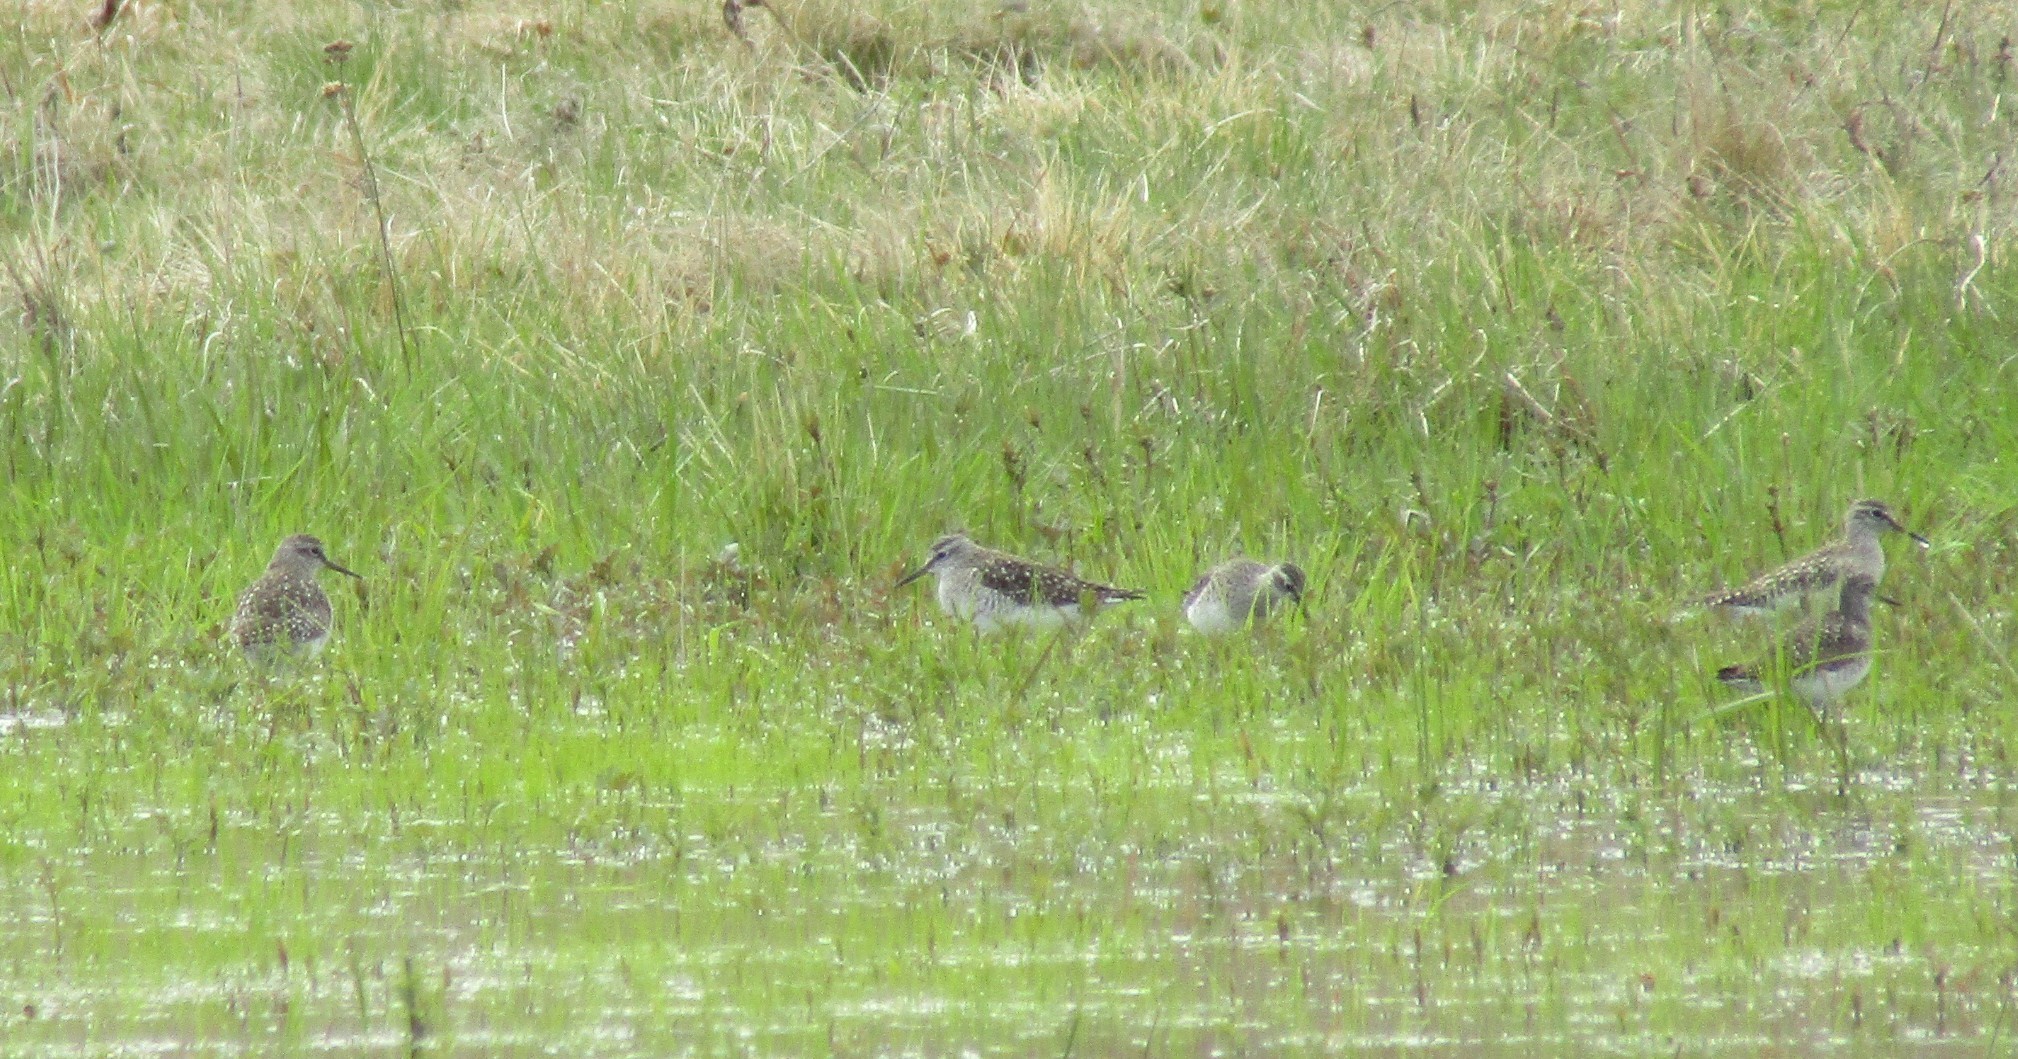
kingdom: Animalia
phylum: Chordata
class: Aves
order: Charadriiformes
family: Scolopacidae
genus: Tringa
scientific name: Tringa glareola
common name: Wood sandpiper
